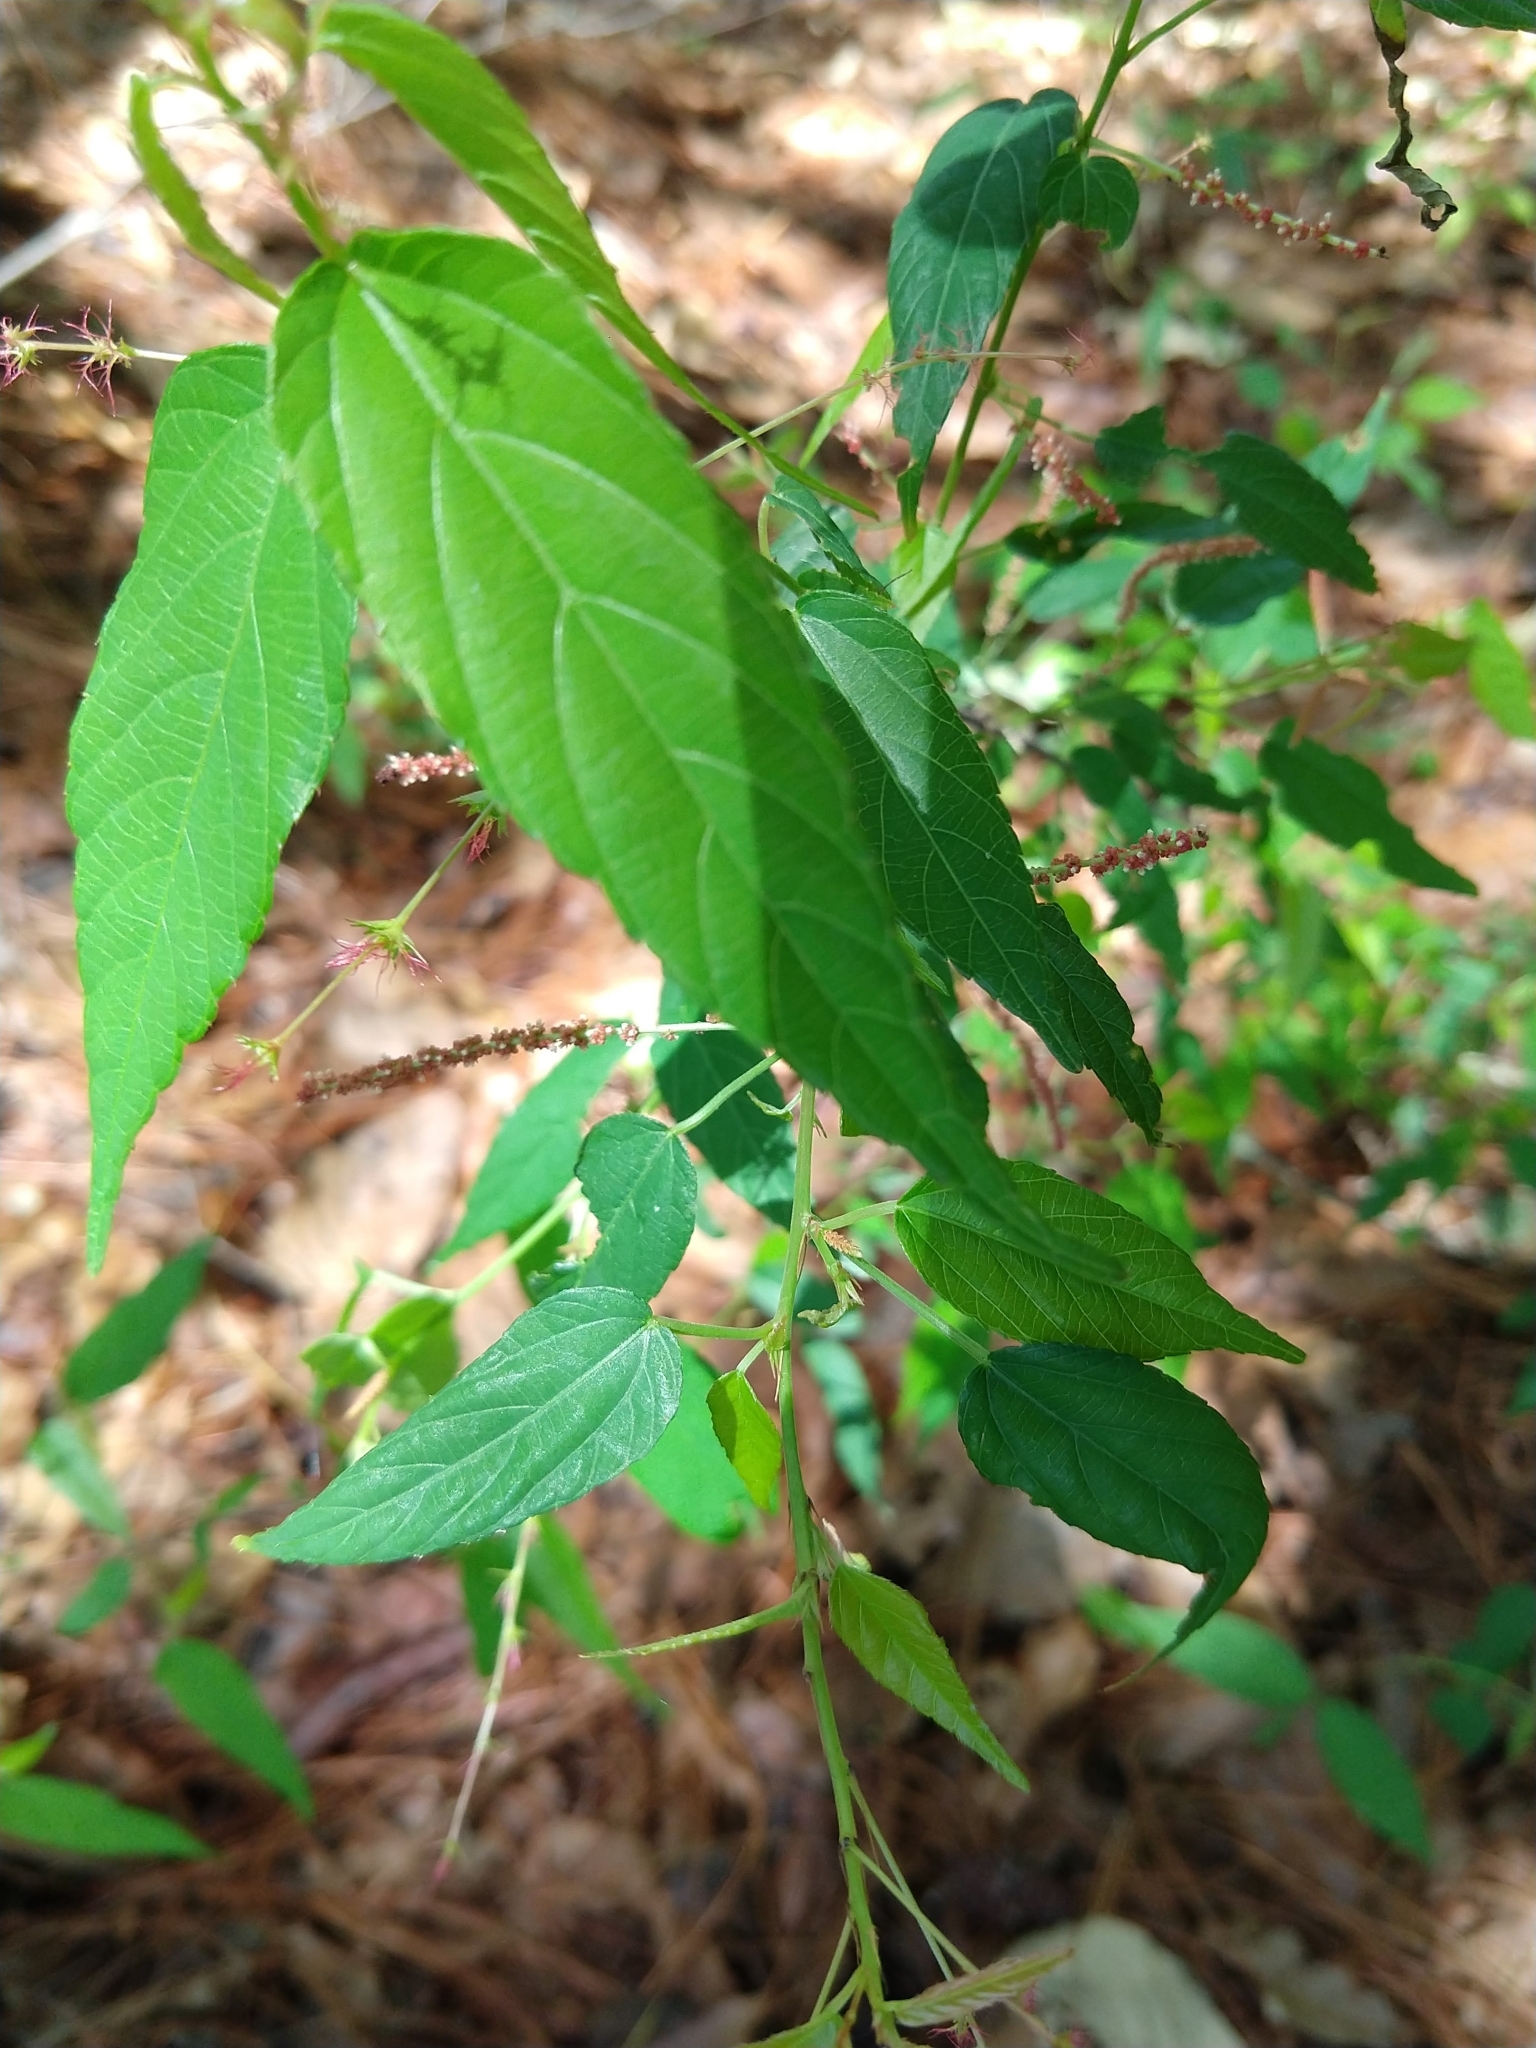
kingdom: Plantae
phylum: Tracheophyta
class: Magnoliopsida
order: Malpighiales
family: Euphorbiaceae
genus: Acalypha
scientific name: Acalypha leptopoda
